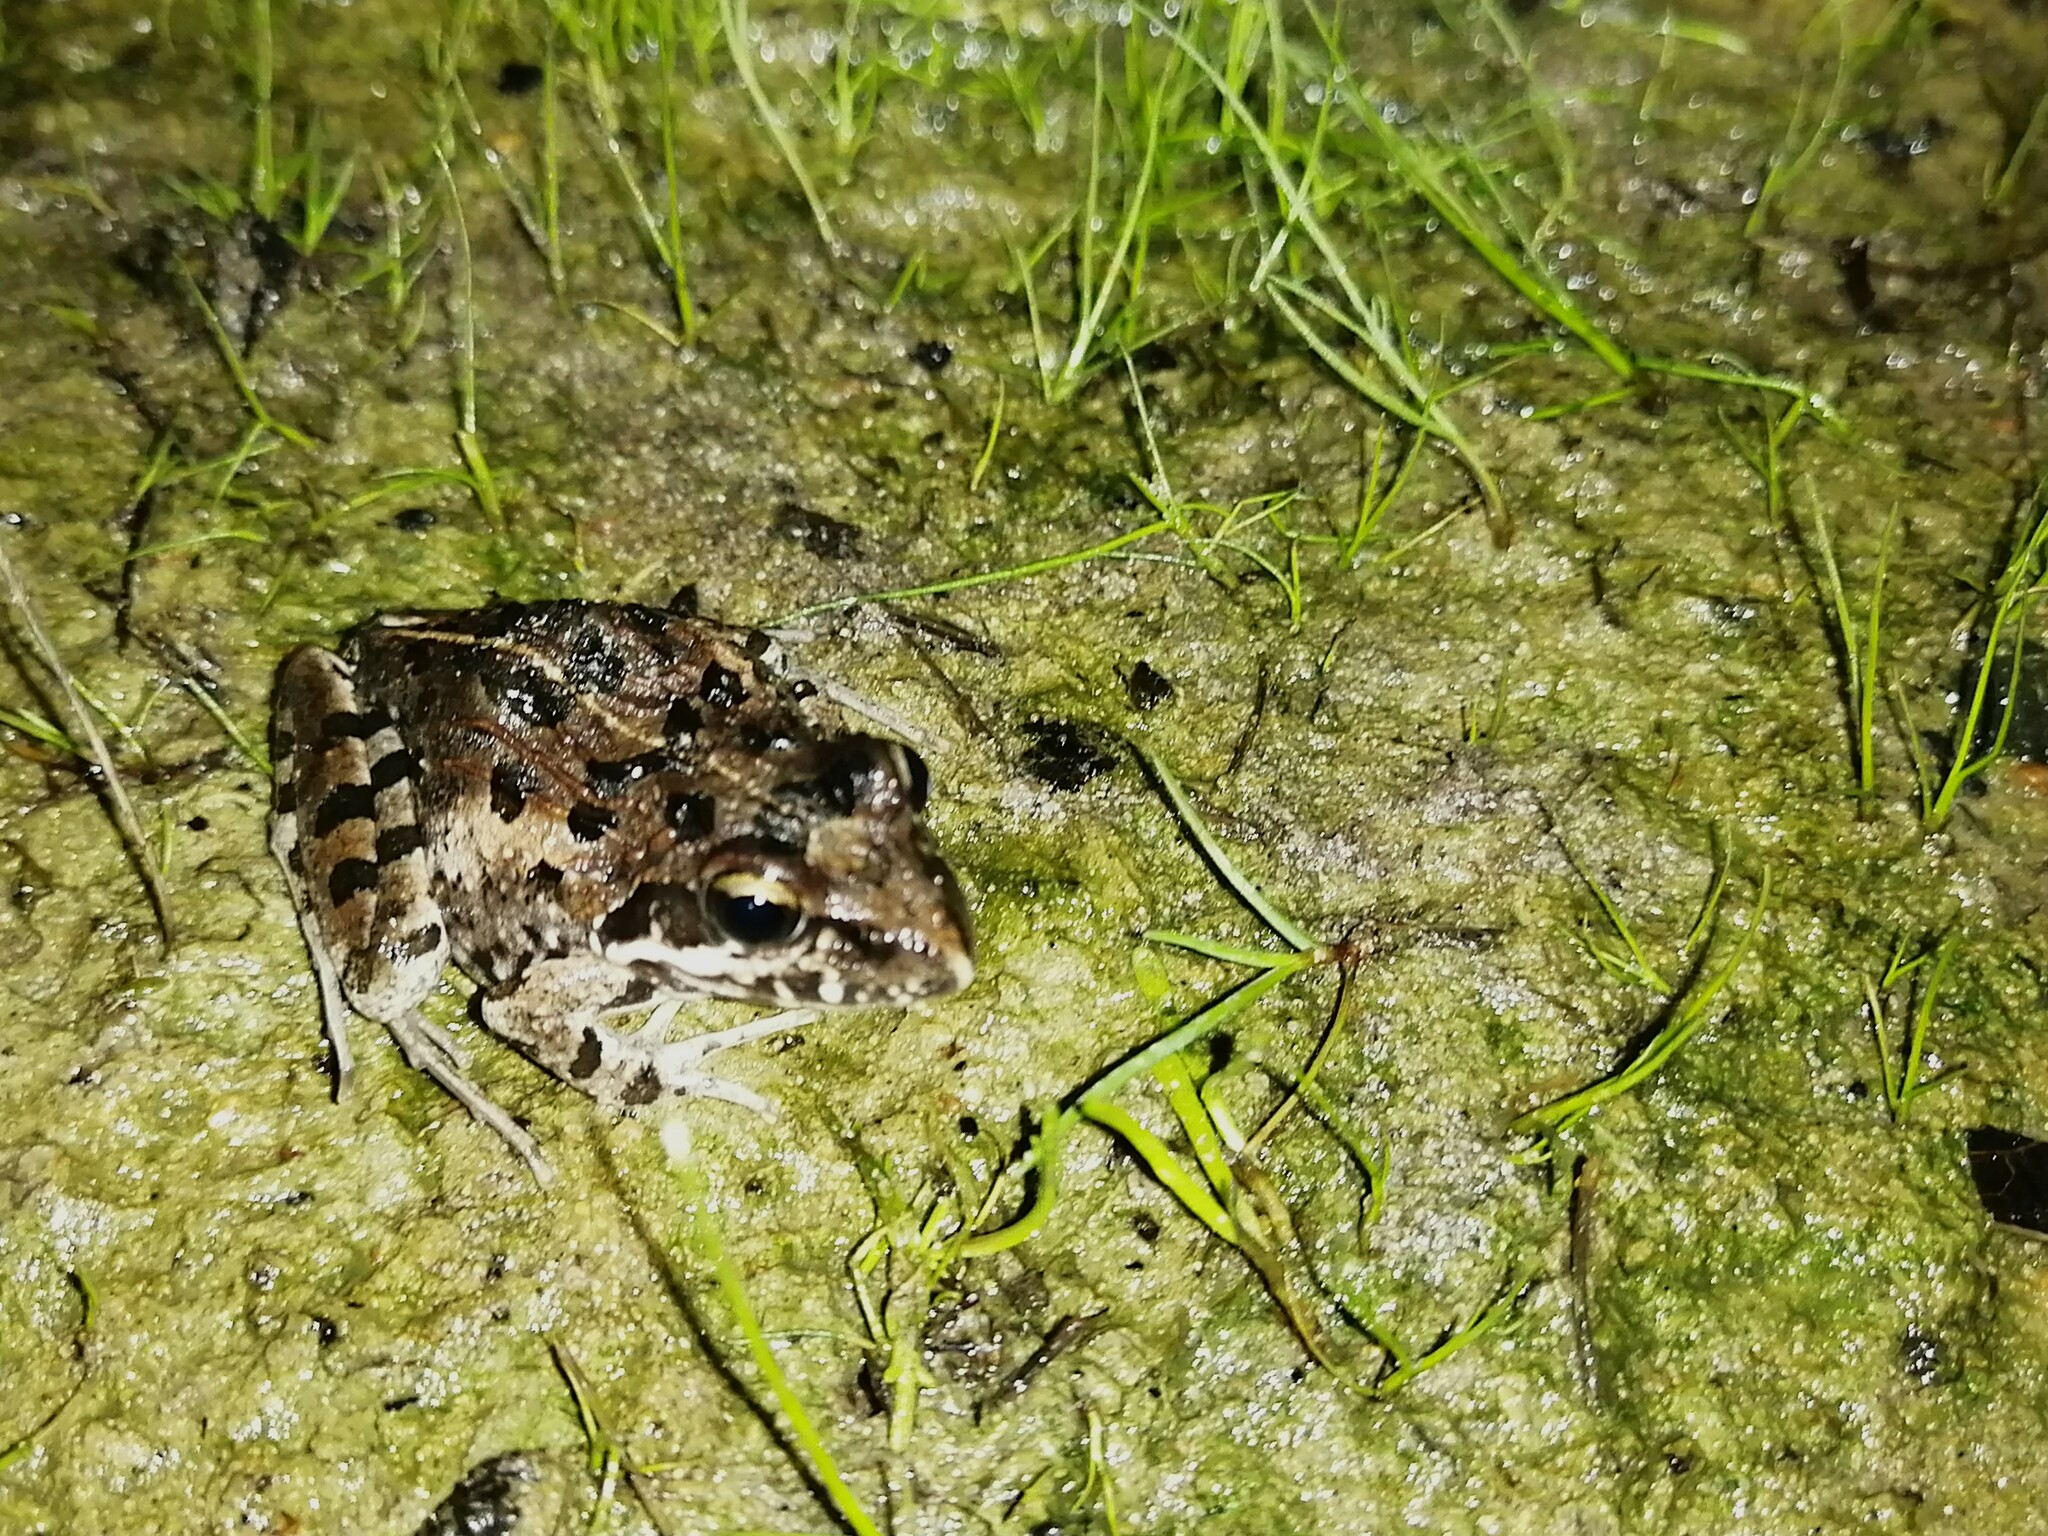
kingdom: Animalia
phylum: Chordata
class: Amphibia
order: Anura
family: Pyxicephalidae
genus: Strongylopus
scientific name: Strongylopus grayii
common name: Gray's stream frog
